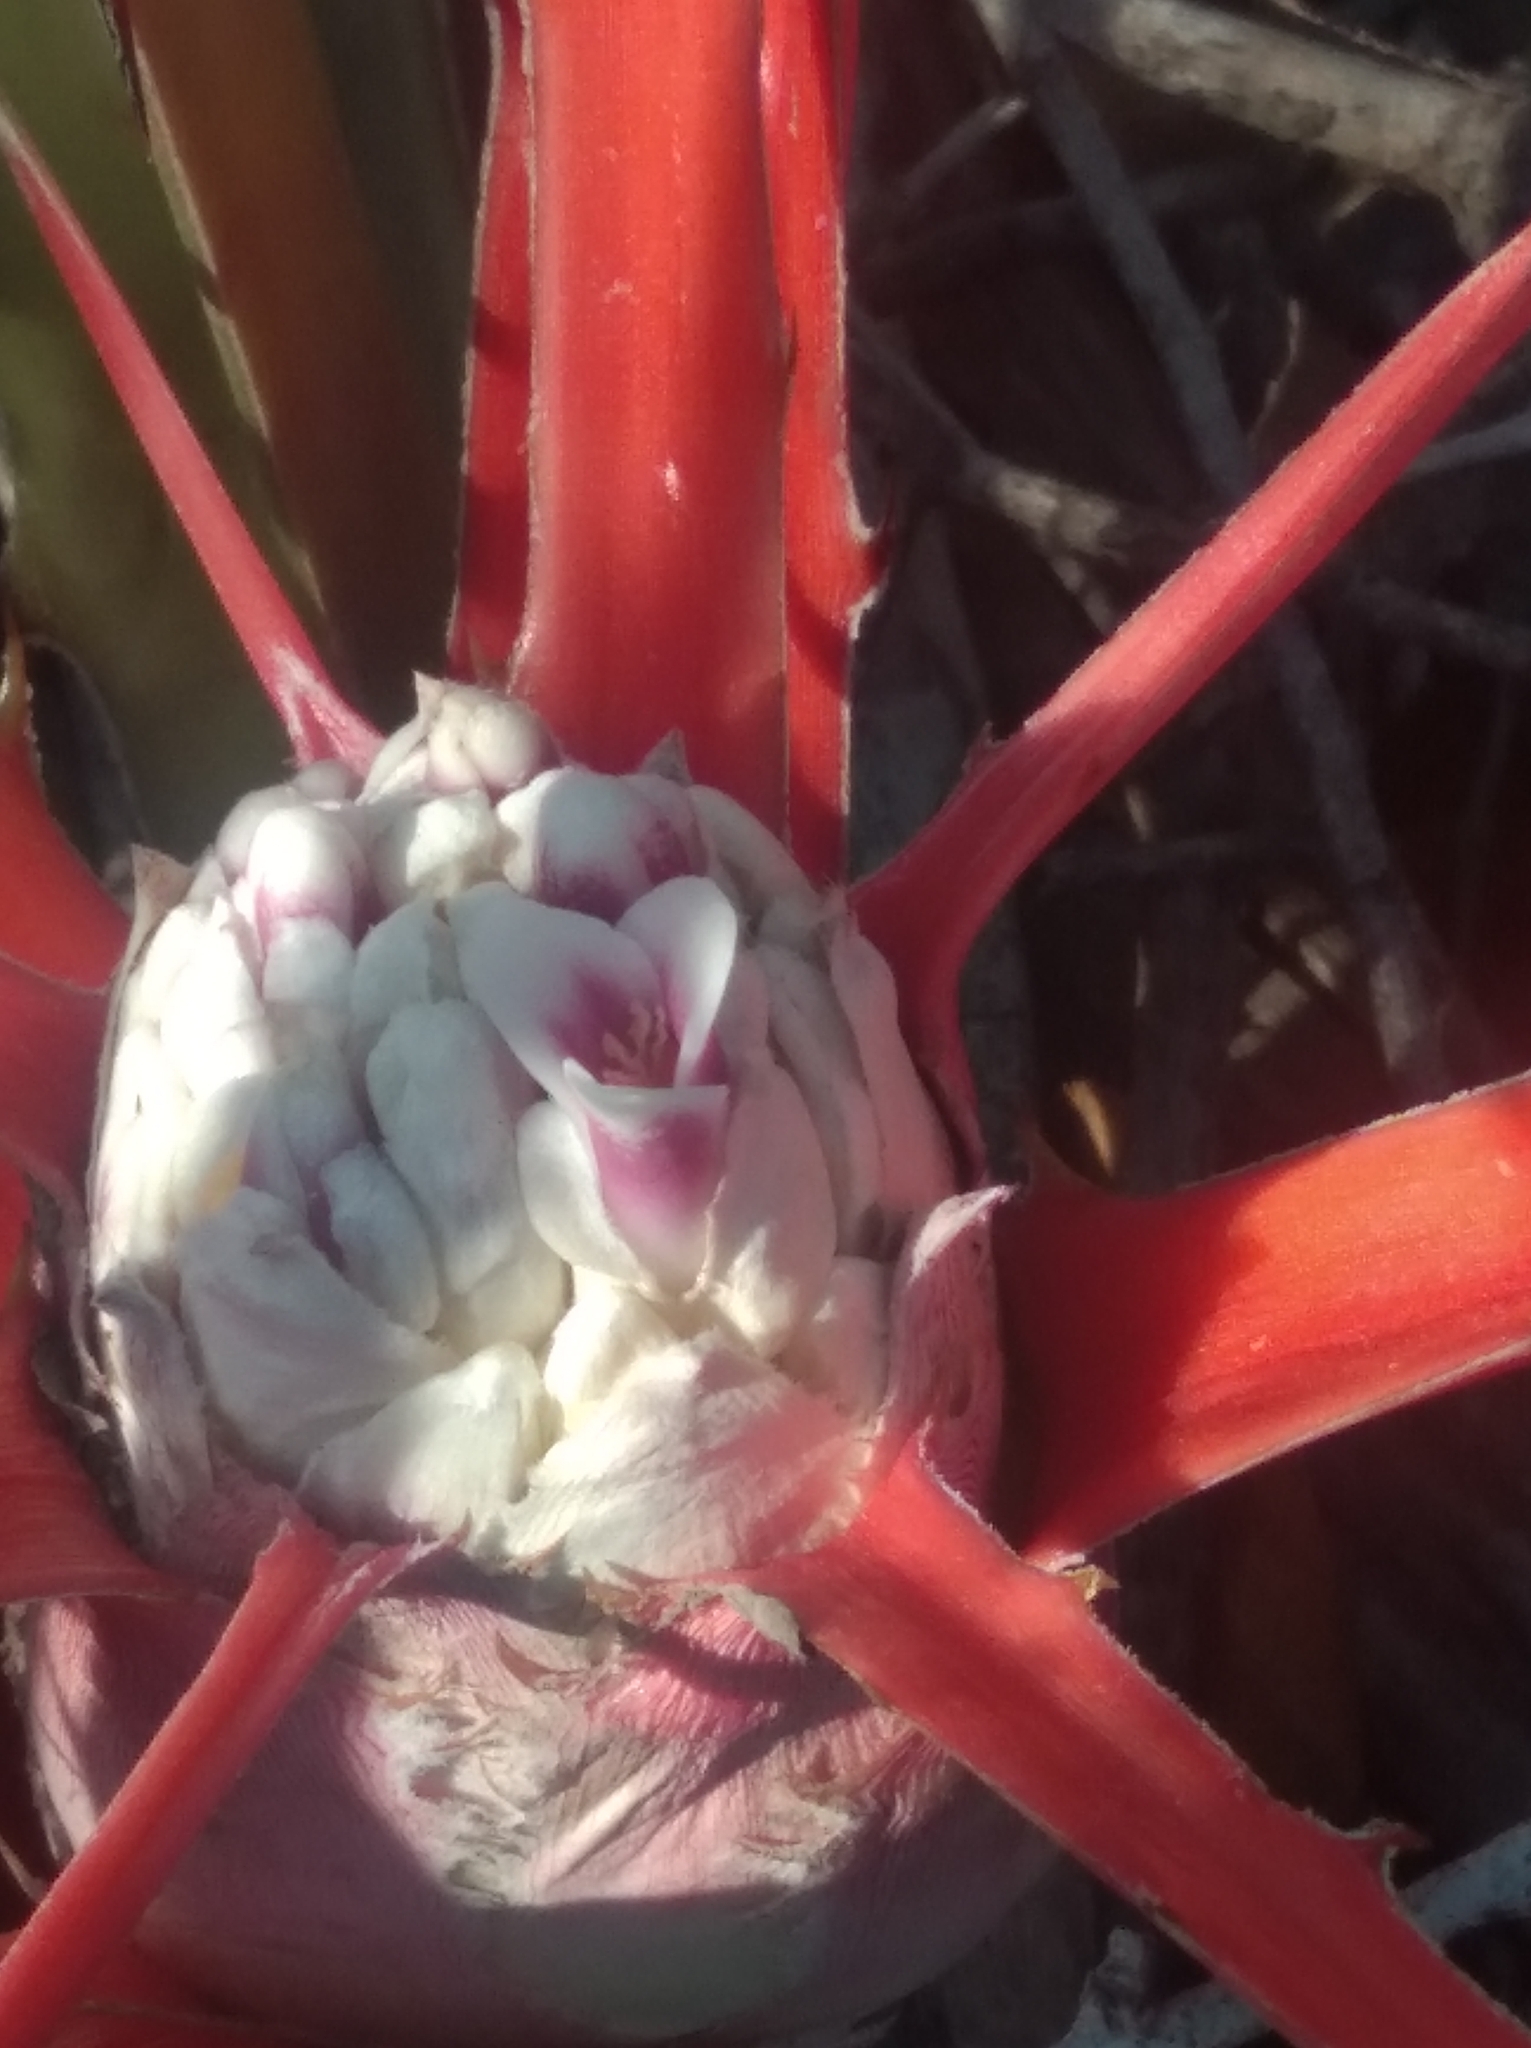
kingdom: Plantae
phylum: Tracheophyta
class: Liliopsida
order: Poales
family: Bromeliaceae
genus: Bromelia
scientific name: Bromelia serra
